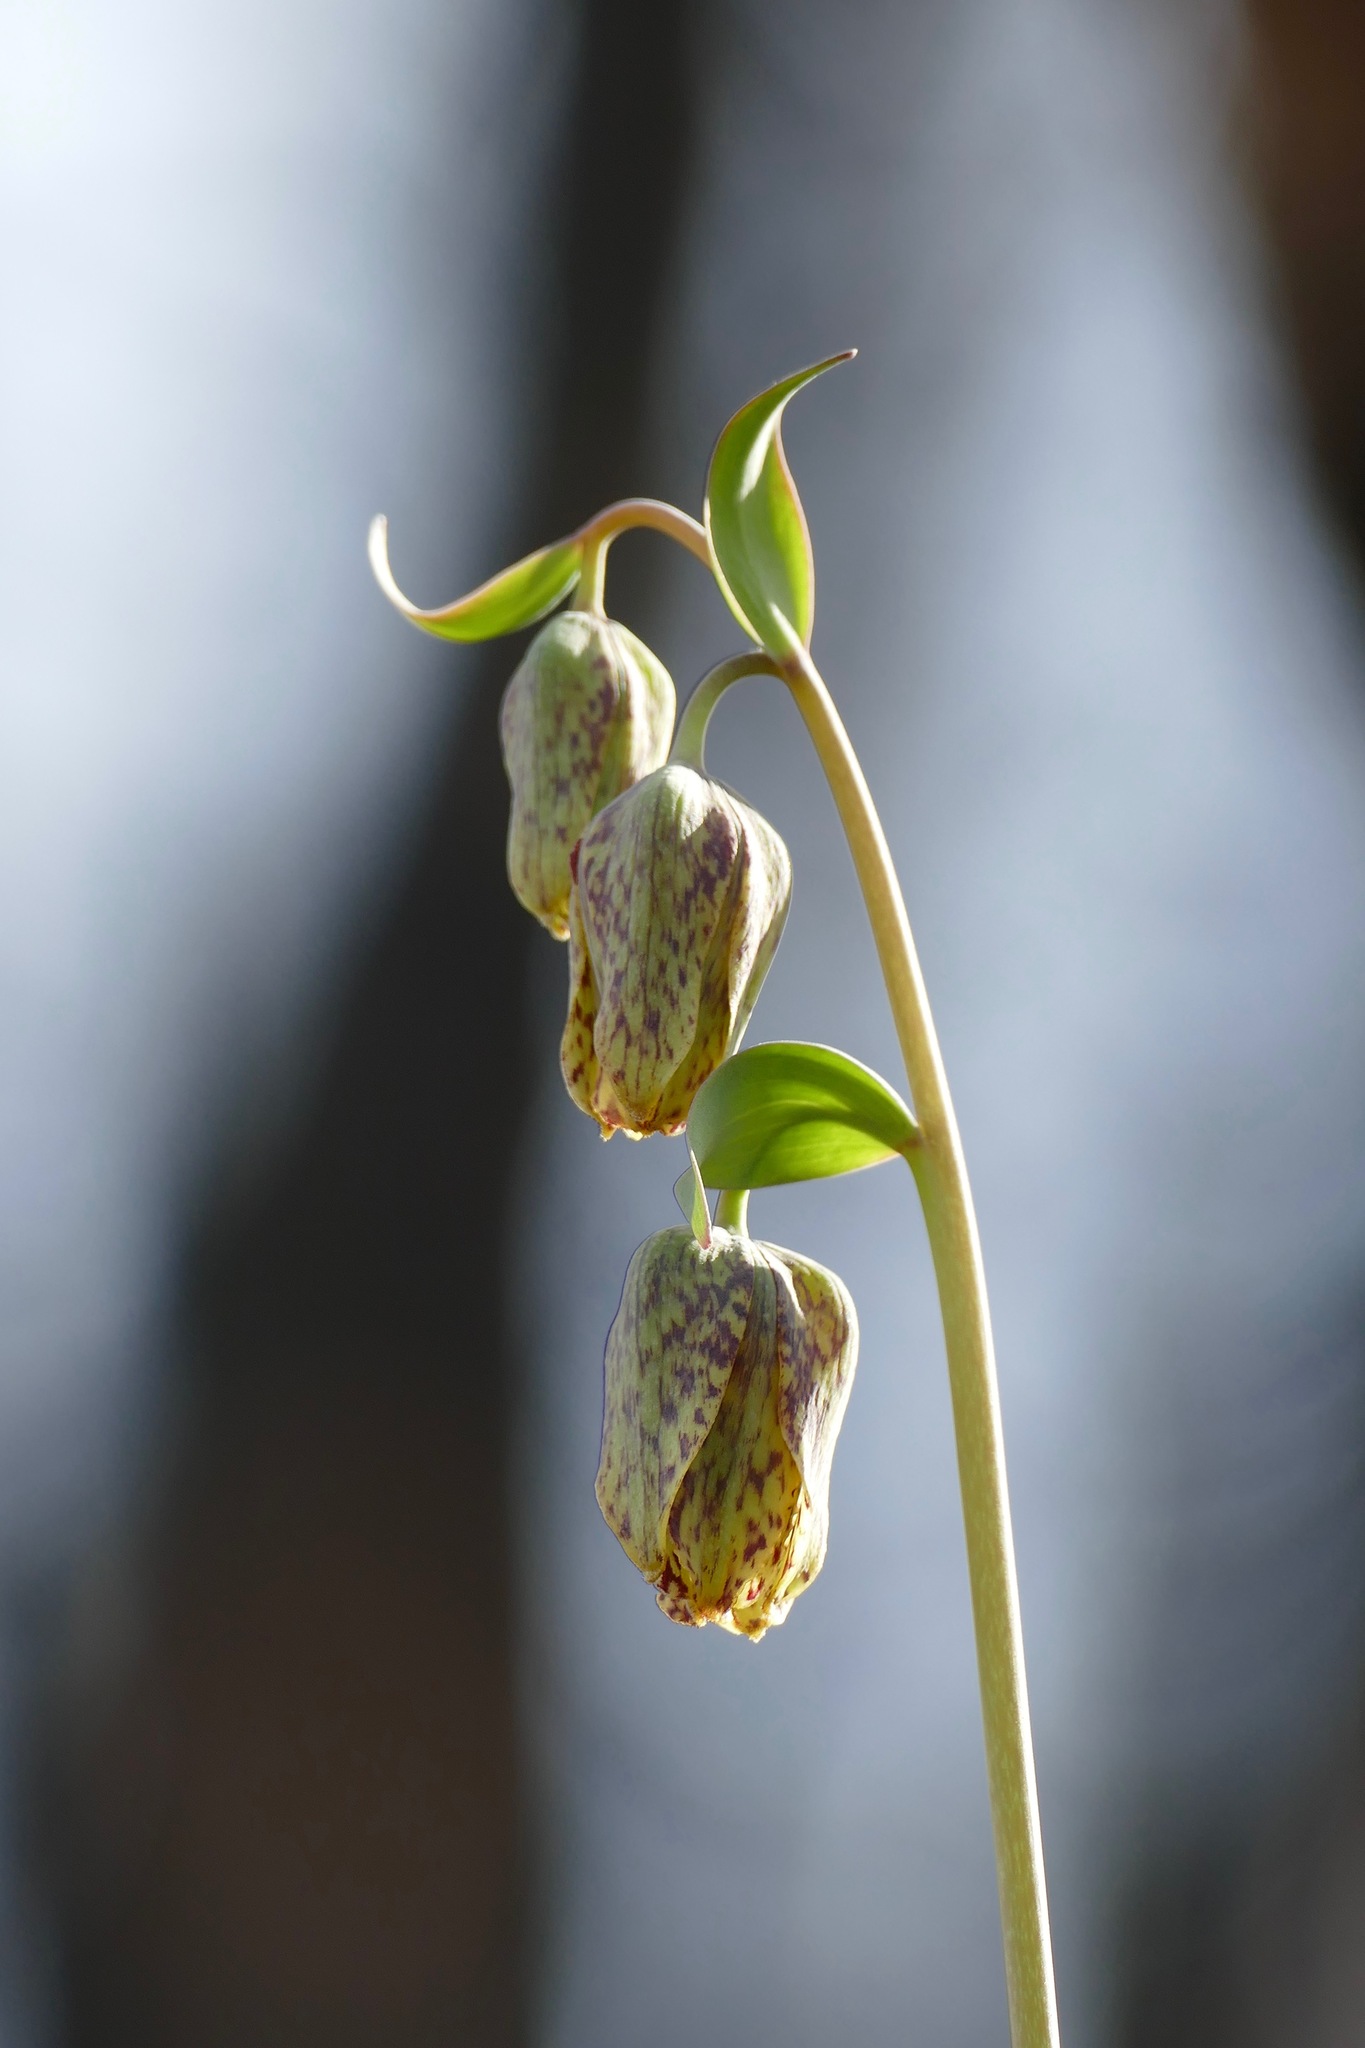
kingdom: Plantae
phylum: Tracheophyta
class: Liliopsida
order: Liliales
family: Liliaceae
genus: Fritillaria
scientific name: Fritillaria affinis
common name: Ojai fritillary
